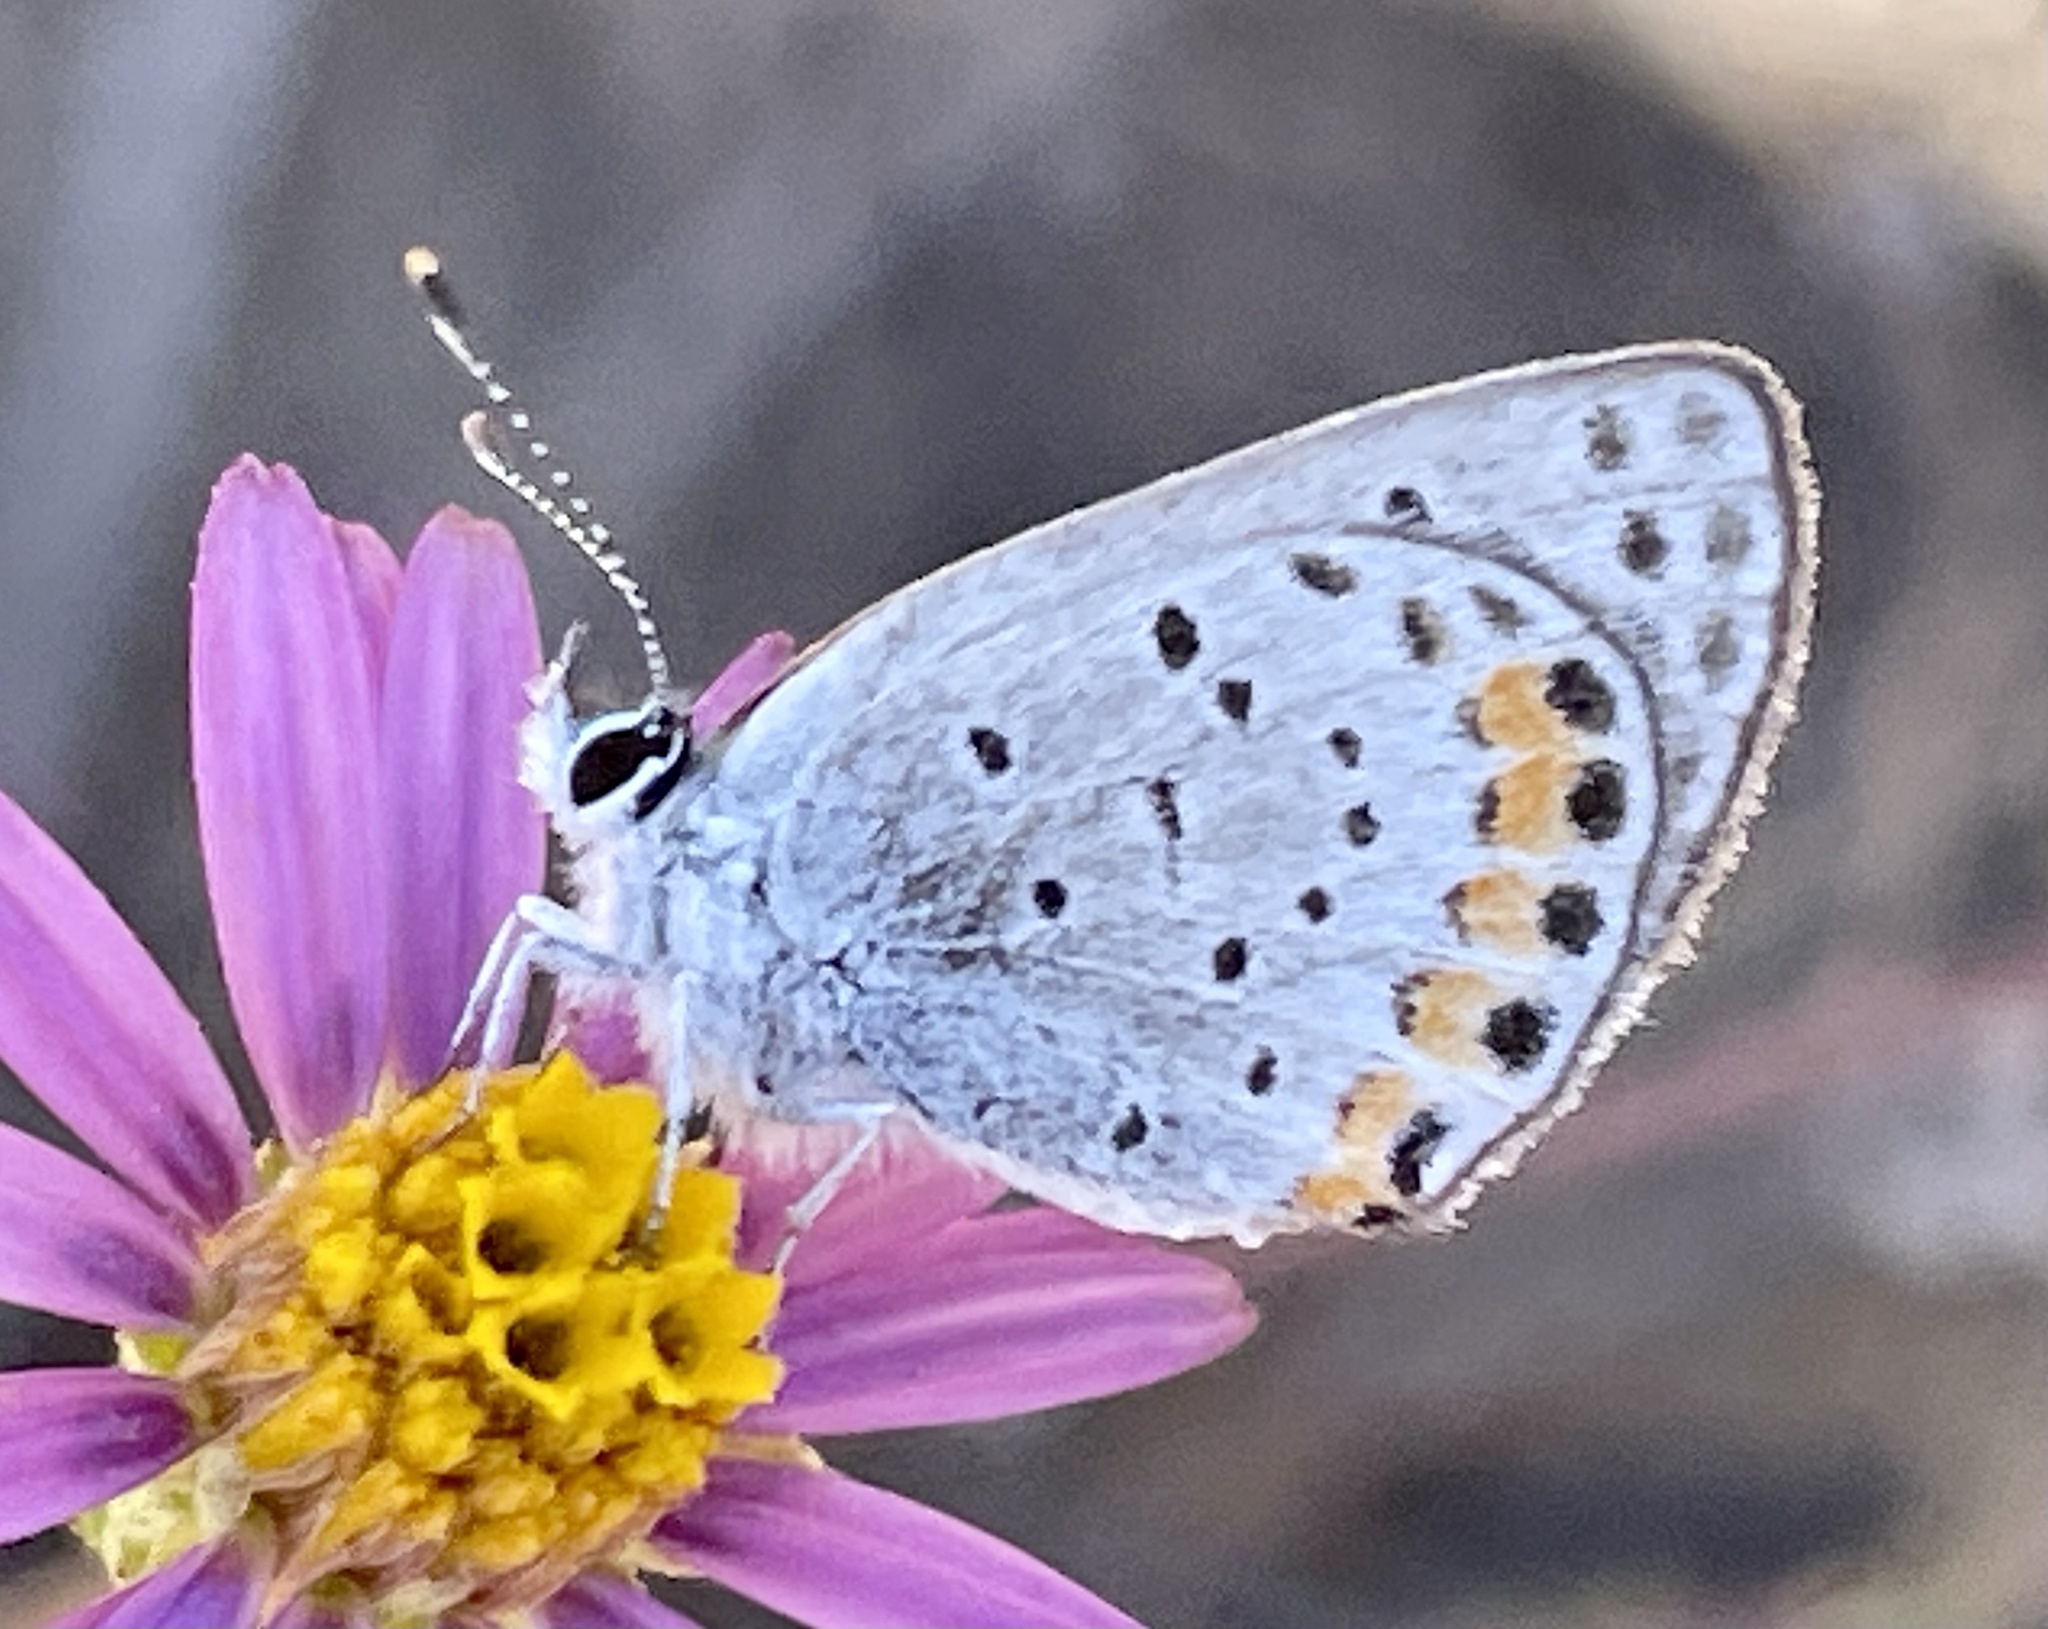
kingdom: Animalia
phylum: Arthropoda
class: Insecta
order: Lepidoptera
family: Lycaenidae
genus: Icaricia
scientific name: Icaricia acmon
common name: Acmon blue
